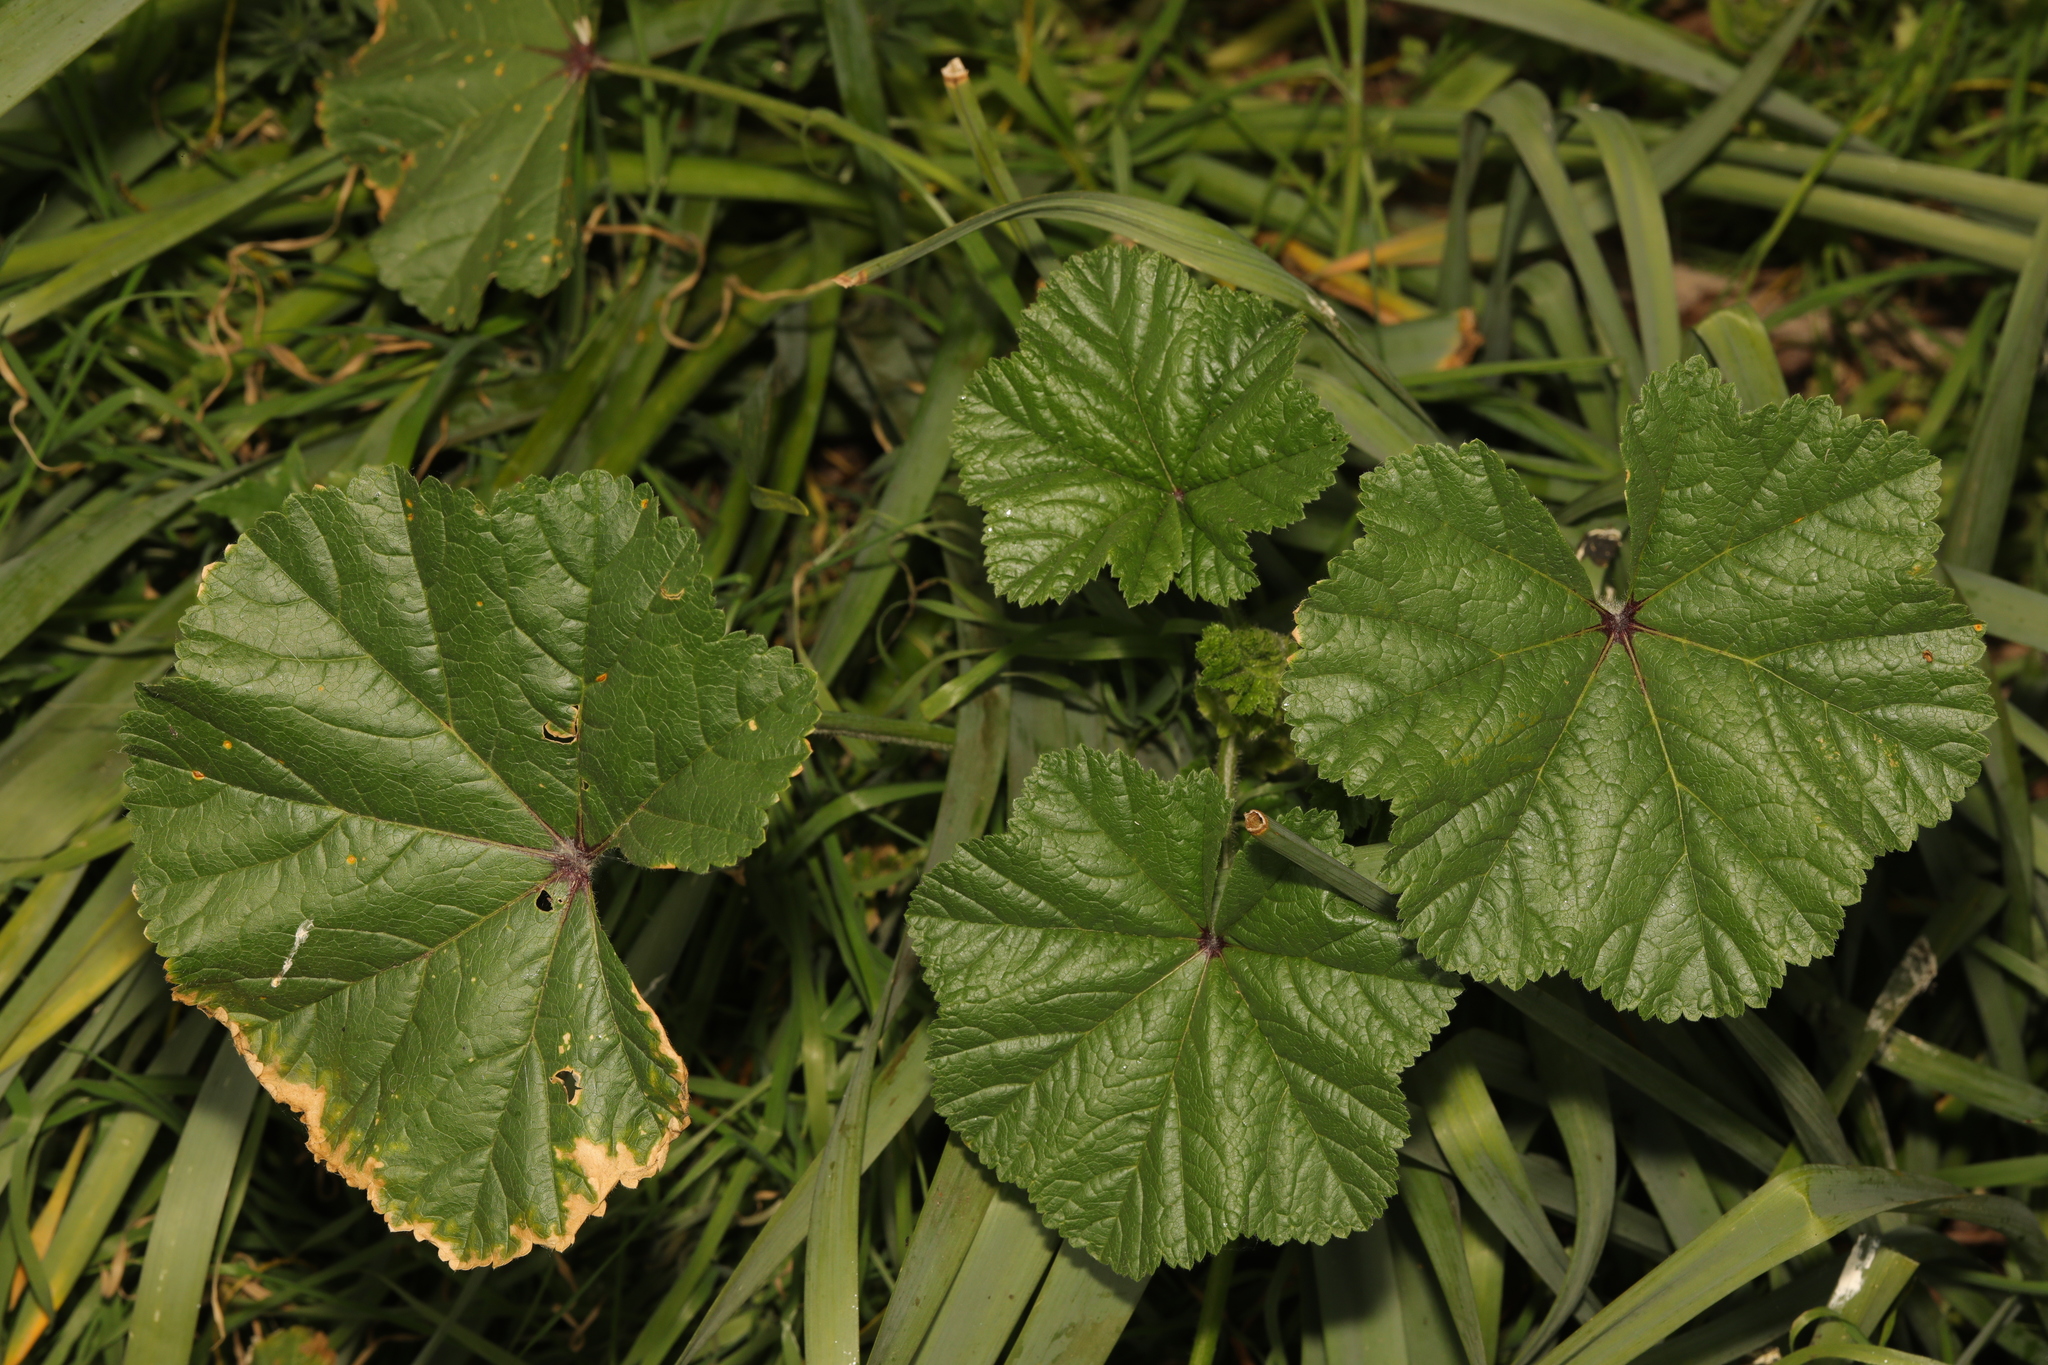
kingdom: Plantae
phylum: Tracheophyta
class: Magnoliopsida
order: Malvales
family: Malvaceae
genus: Malva
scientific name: Malva sylvestris
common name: Common mallow
